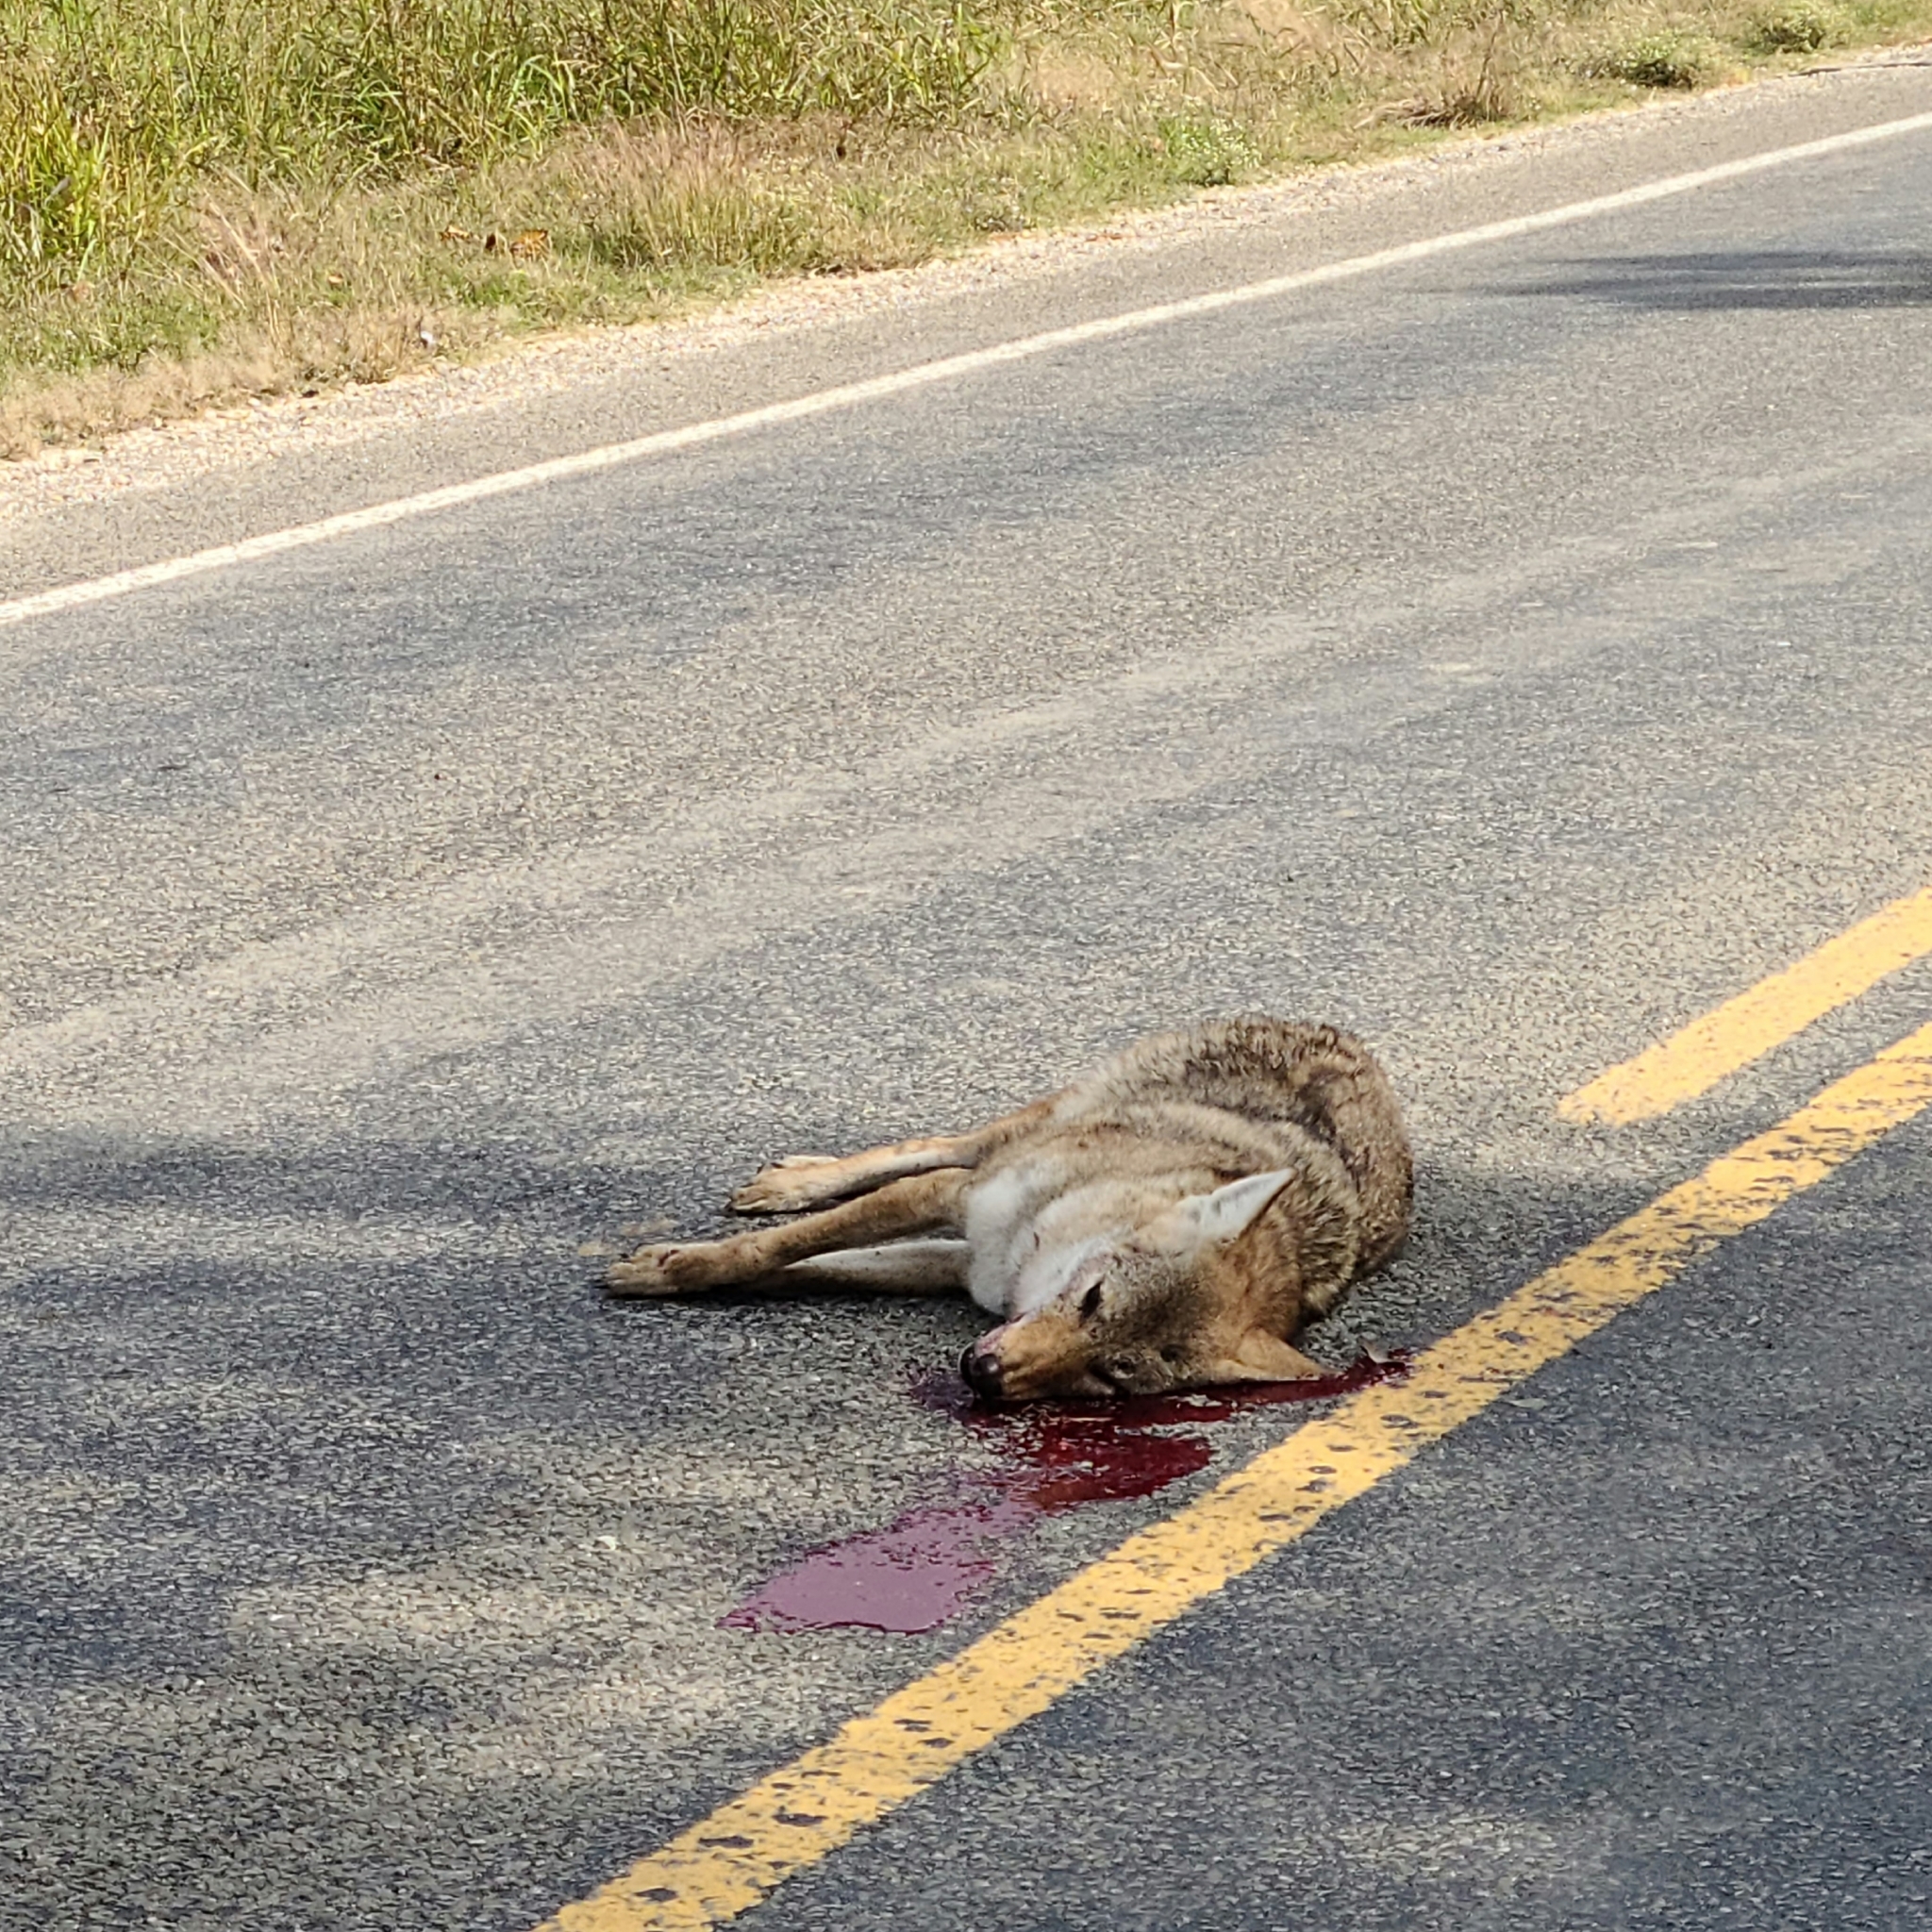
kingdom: Animalia
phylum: Chordata
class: Mammalia
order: Carnivora
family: Canidae
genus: Canis
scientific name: Canis latrans
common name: Coyote
